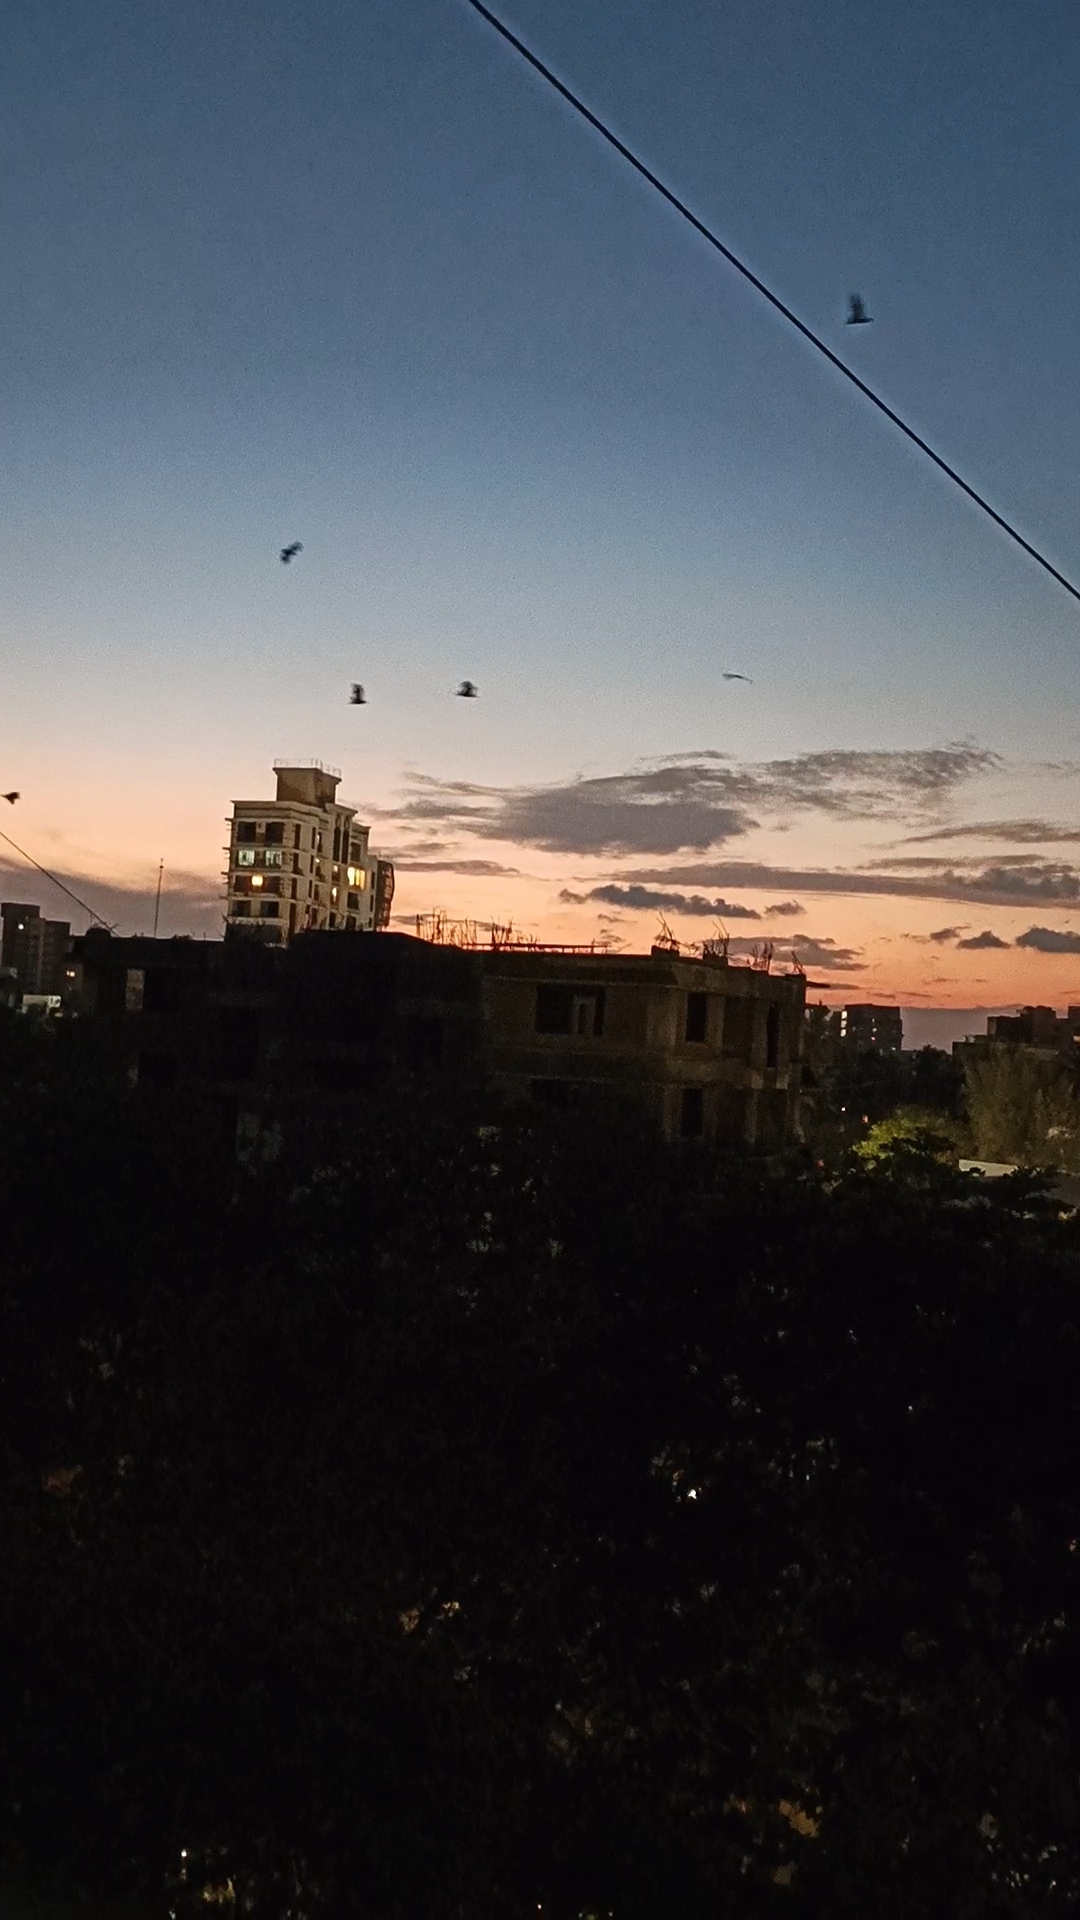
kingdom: Animalia
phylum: Chordata
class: Mammalia
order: Chiroptera
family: Pteropodidae
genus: Pteropus
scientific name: Pteropus vampyrus
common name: Large flying fox
